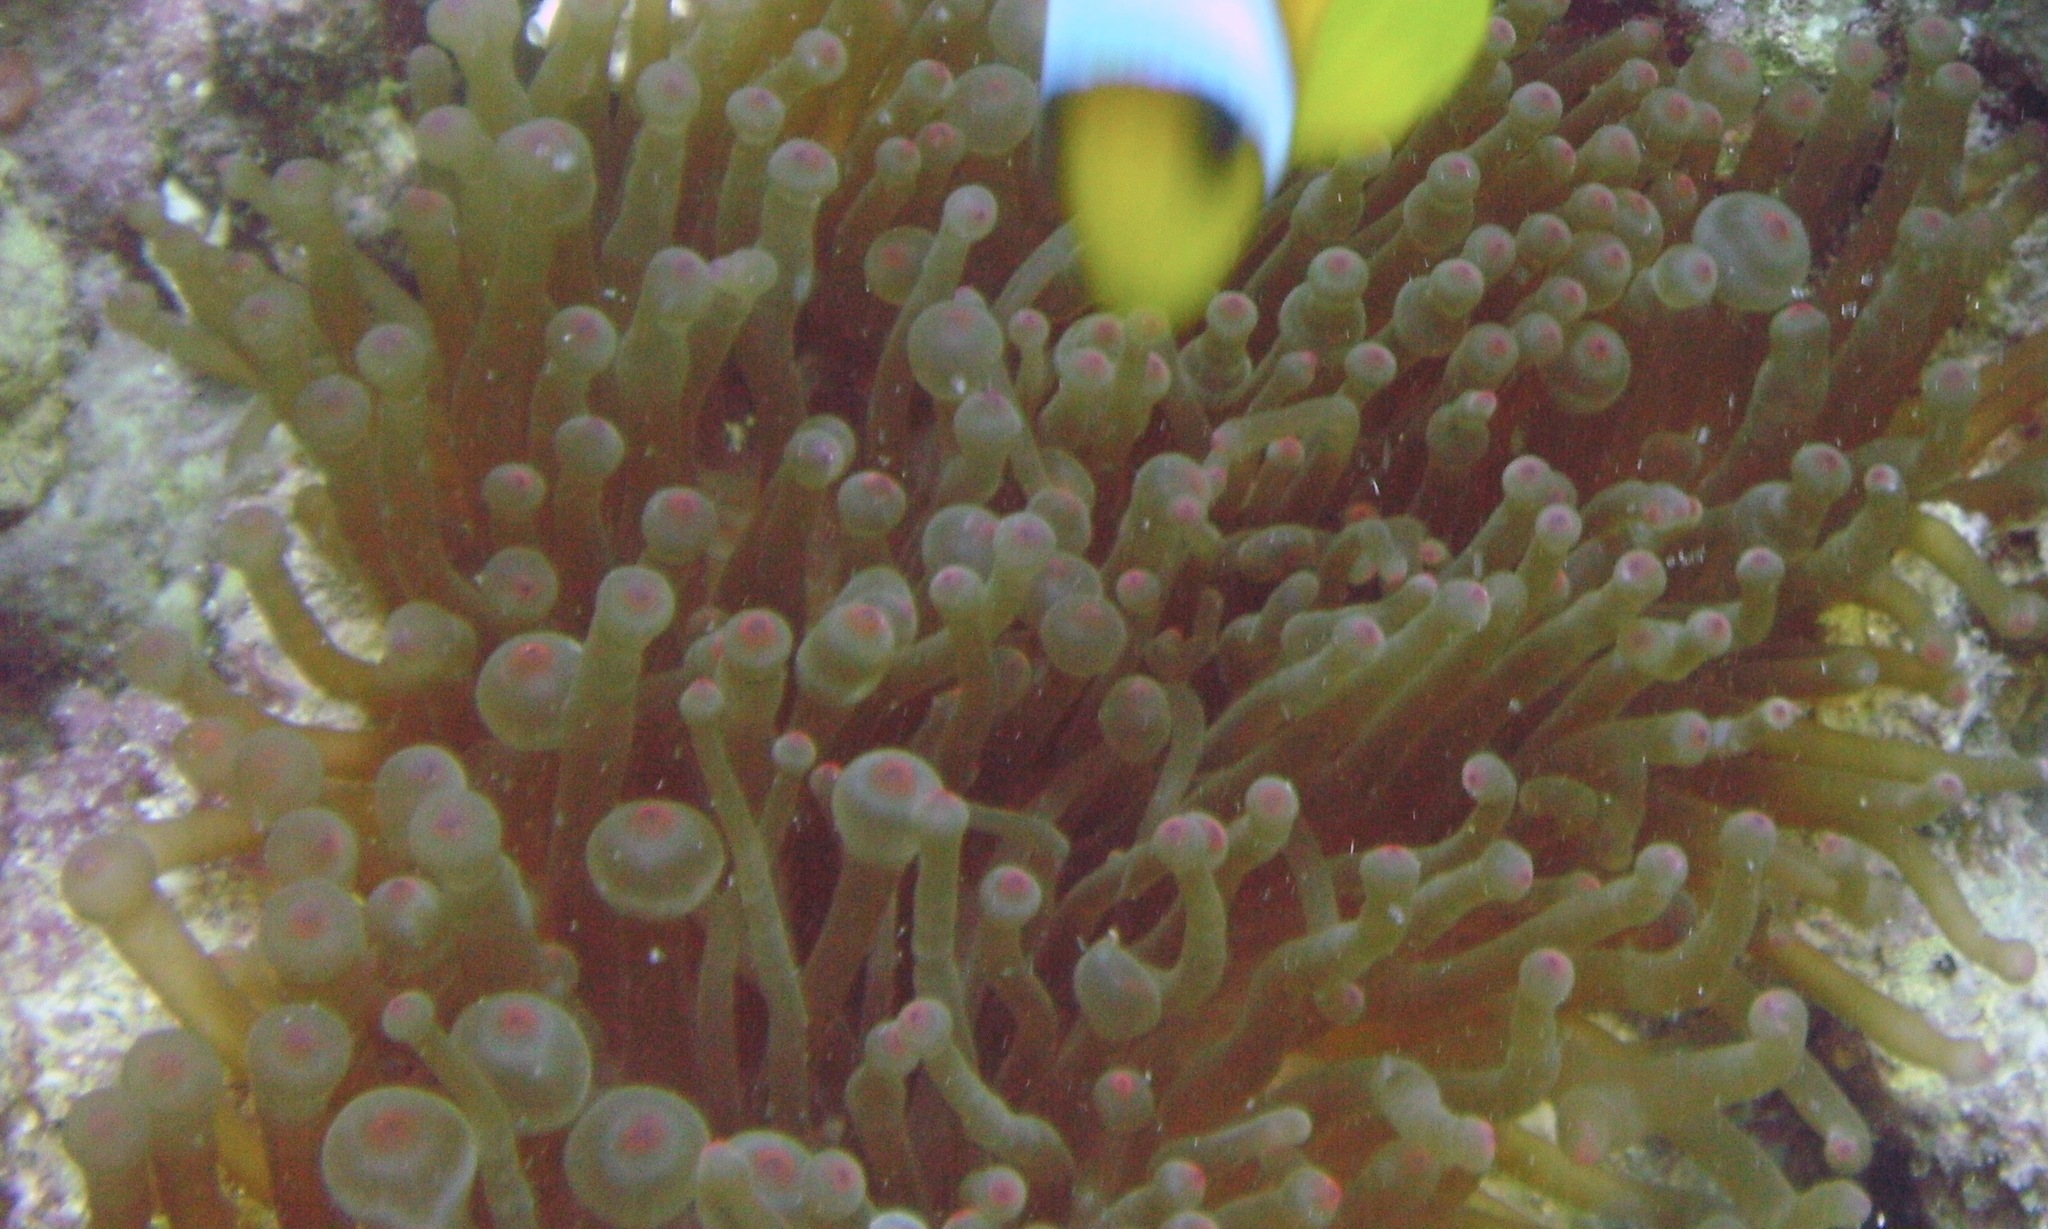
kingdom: Animalia
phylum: Cnidaria
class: Anthozoa
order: Actiniaria
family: Actiniidae
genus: Entacmaea
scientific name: Entacmaea quadricolor
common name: Bulb tentacle sea anemone
